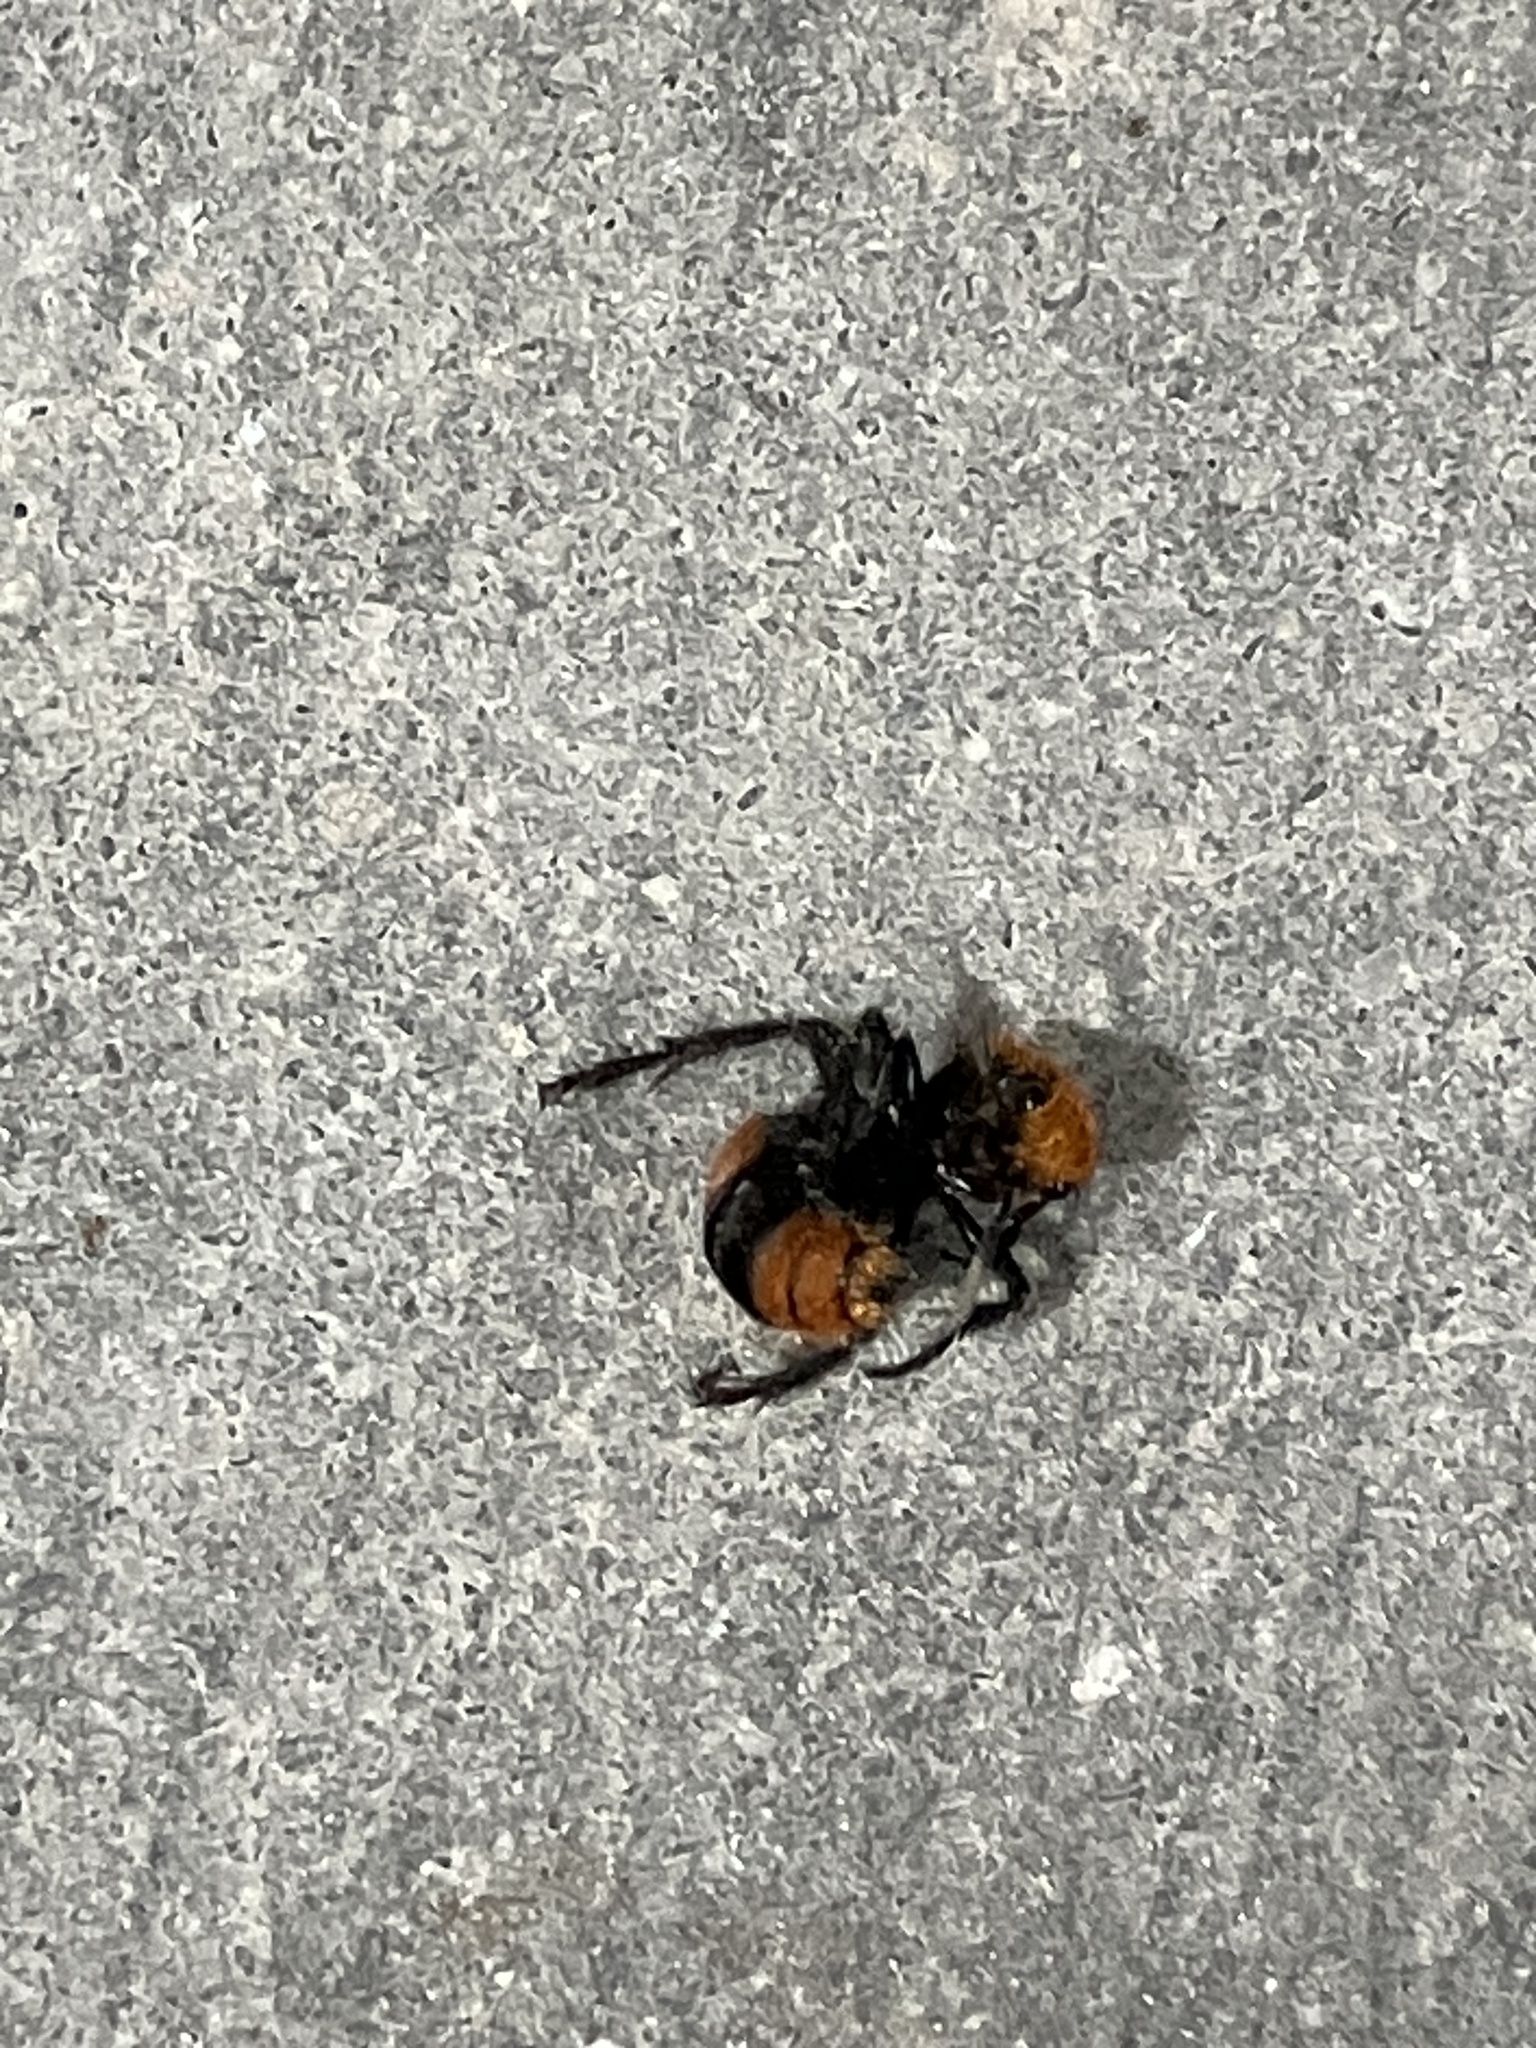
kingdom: Animalia
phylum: Arthropoda
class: Insecta
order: Hymenoptera
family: Mutillidae
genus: Dasymutilla
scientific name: Dasymutilla occidentalis
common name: Common eastern velvet ant
